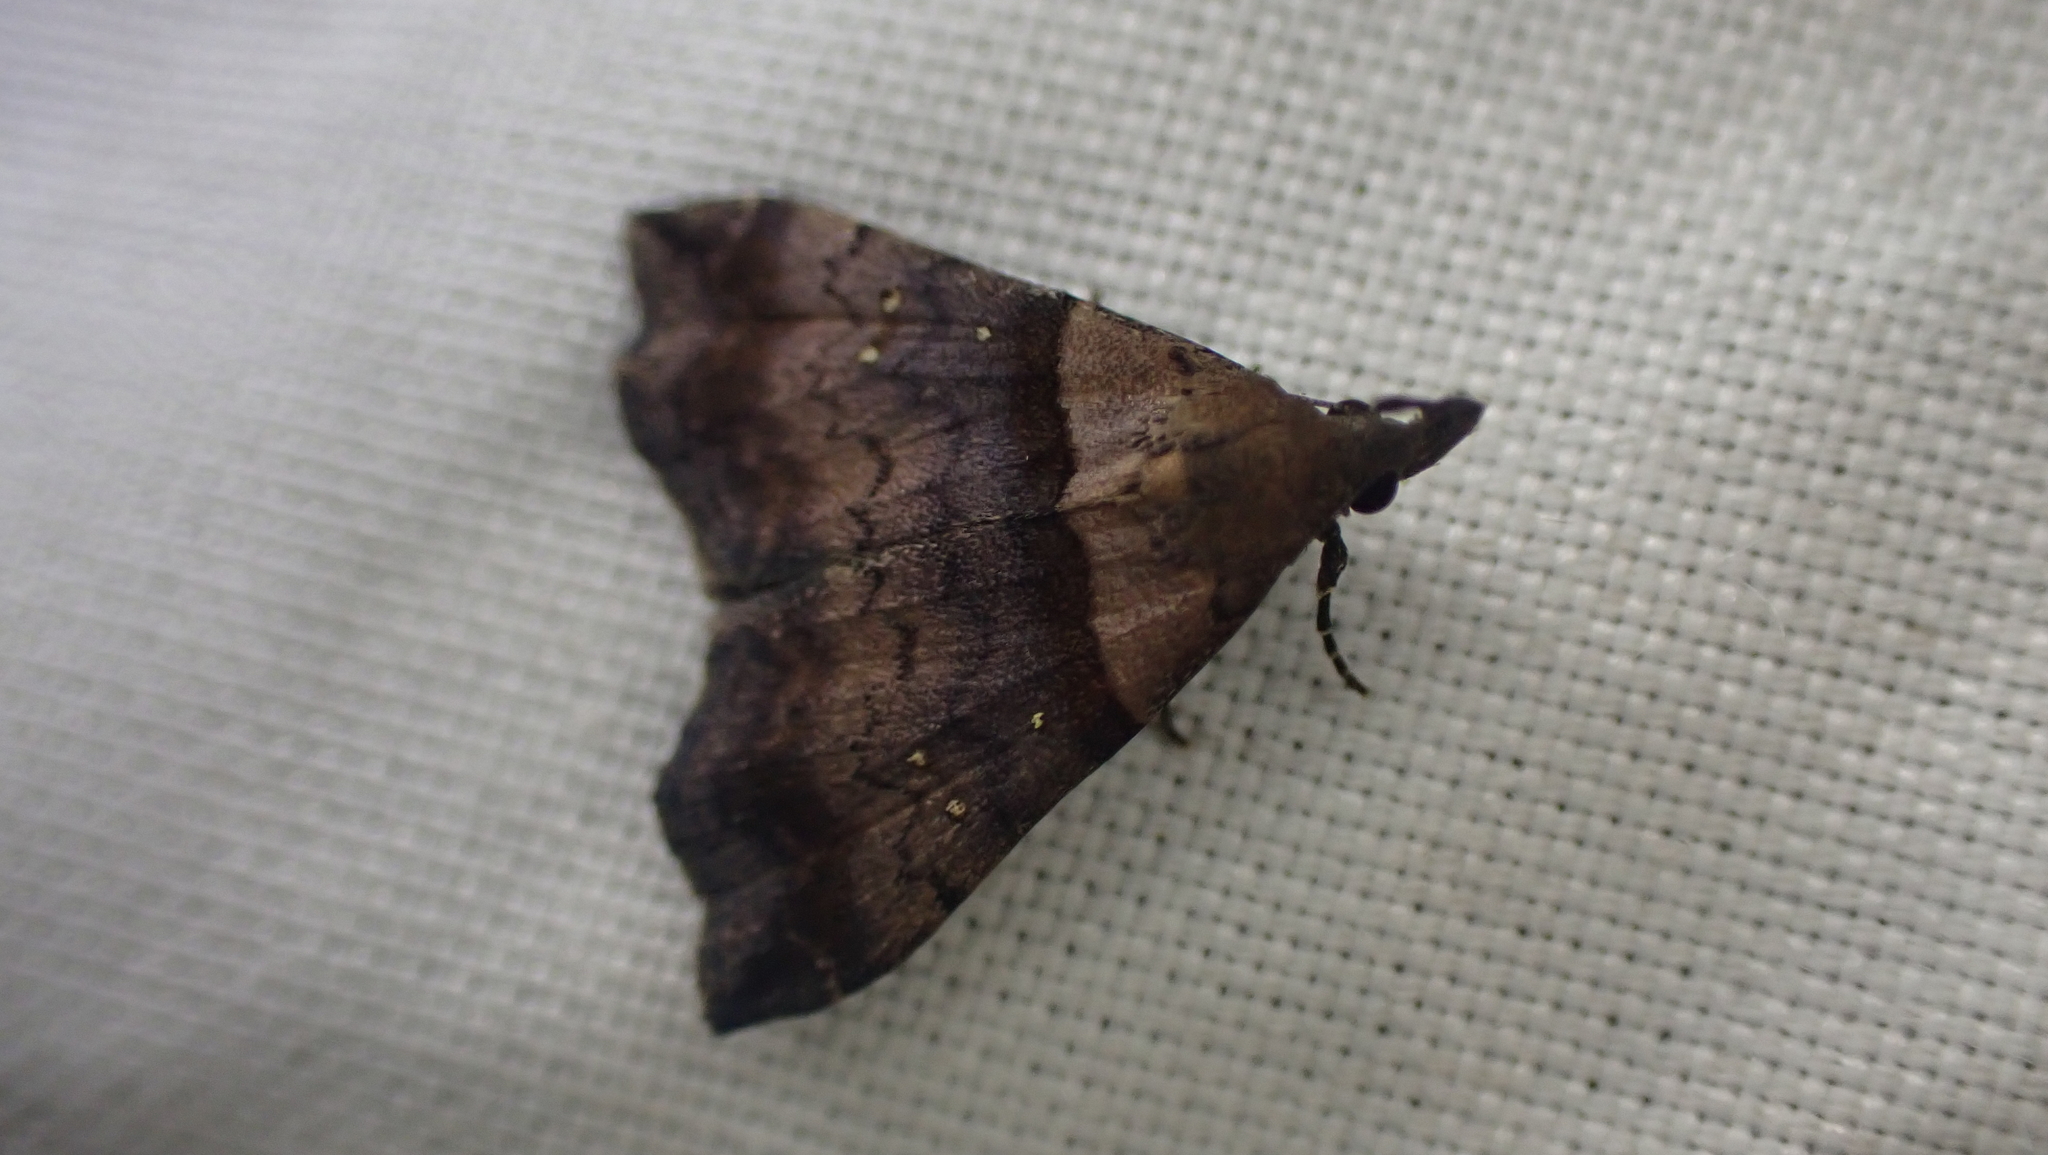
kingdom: Animalia
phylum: Arthropoda
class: Insecta
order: Lepidoptera
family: Erebidae
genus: Lascoria
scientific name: Lascoria ambigualis
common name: Ambiguous moth
